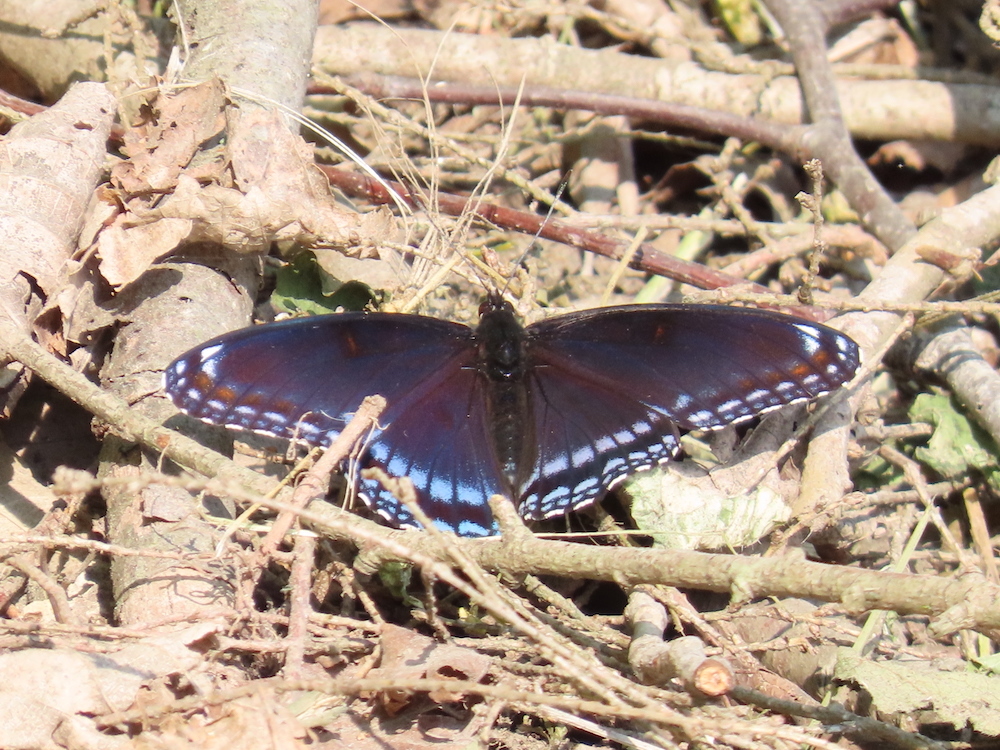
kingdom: Animalia
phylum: Arthropoda
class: Insecta
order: Lepidoptera
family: Nymphalidae
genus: Limenitis
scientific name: Limenitis arthemis
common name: Red-spotted admiral
